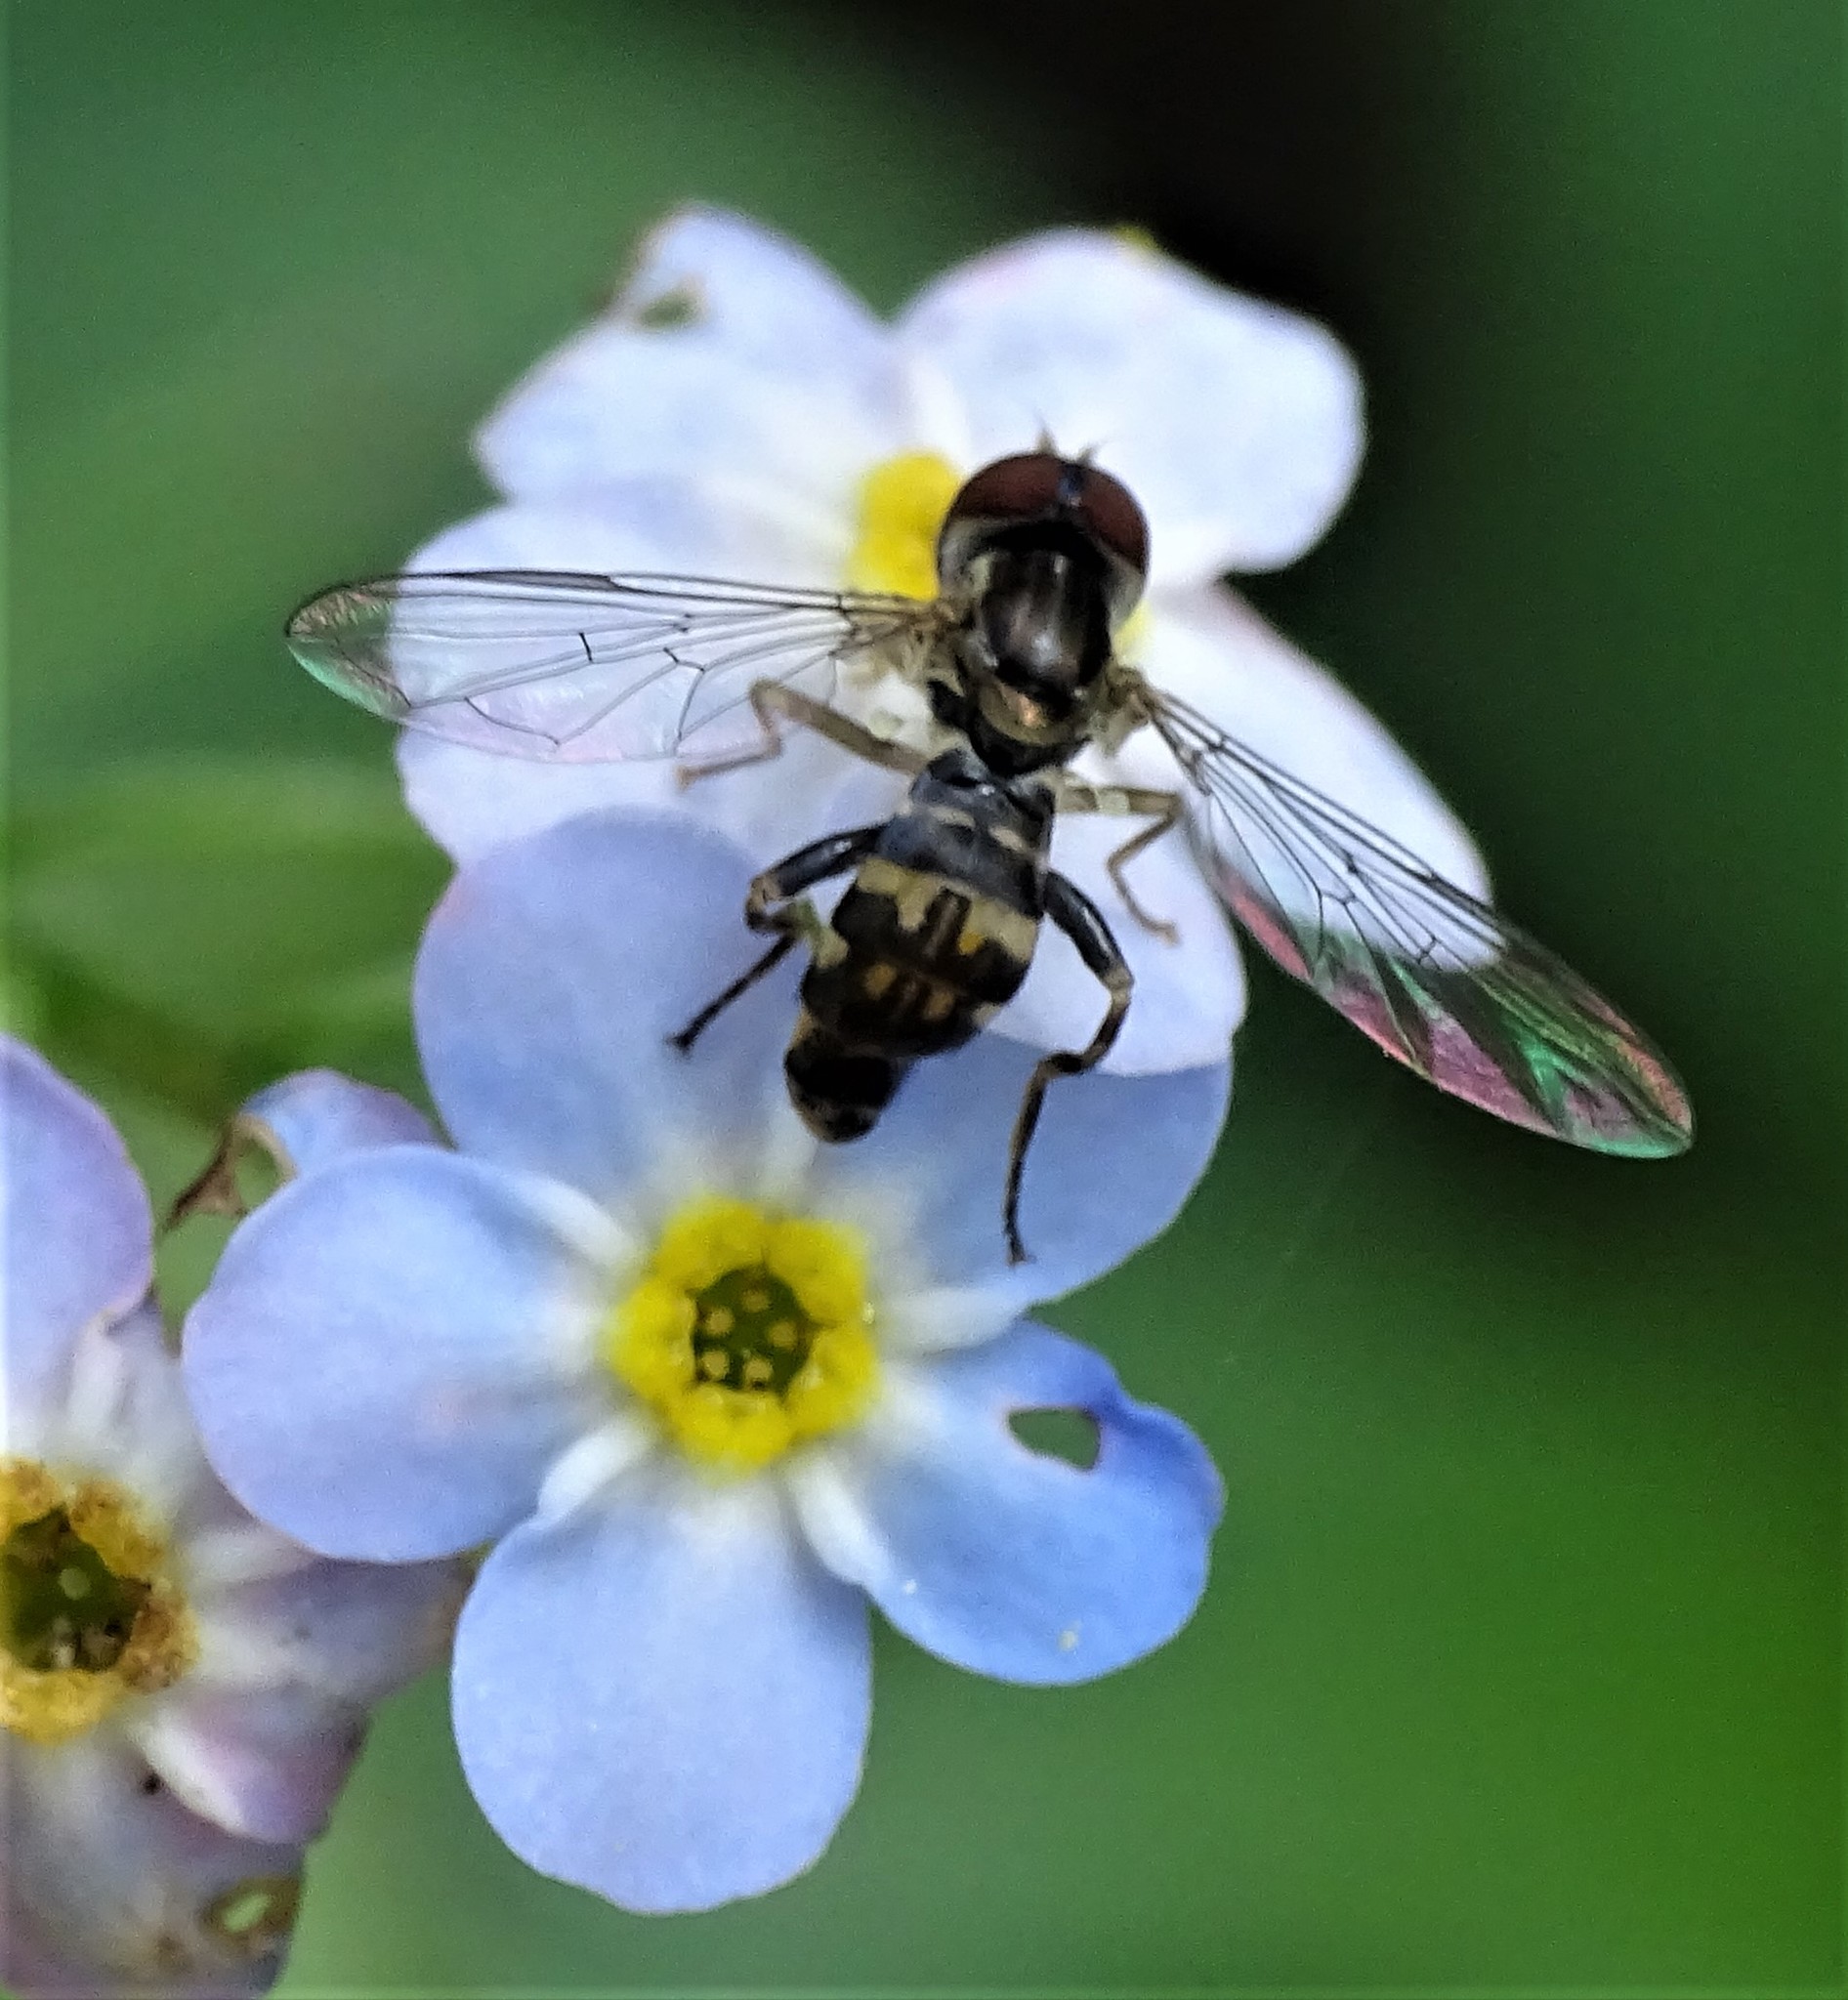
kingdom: Animalia
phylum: Arthropoda
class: Insecta
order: Diptera
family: Syrphidae
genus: Toxomerus
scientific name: Toxomerus geminatus
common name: Eastern calligrapher
